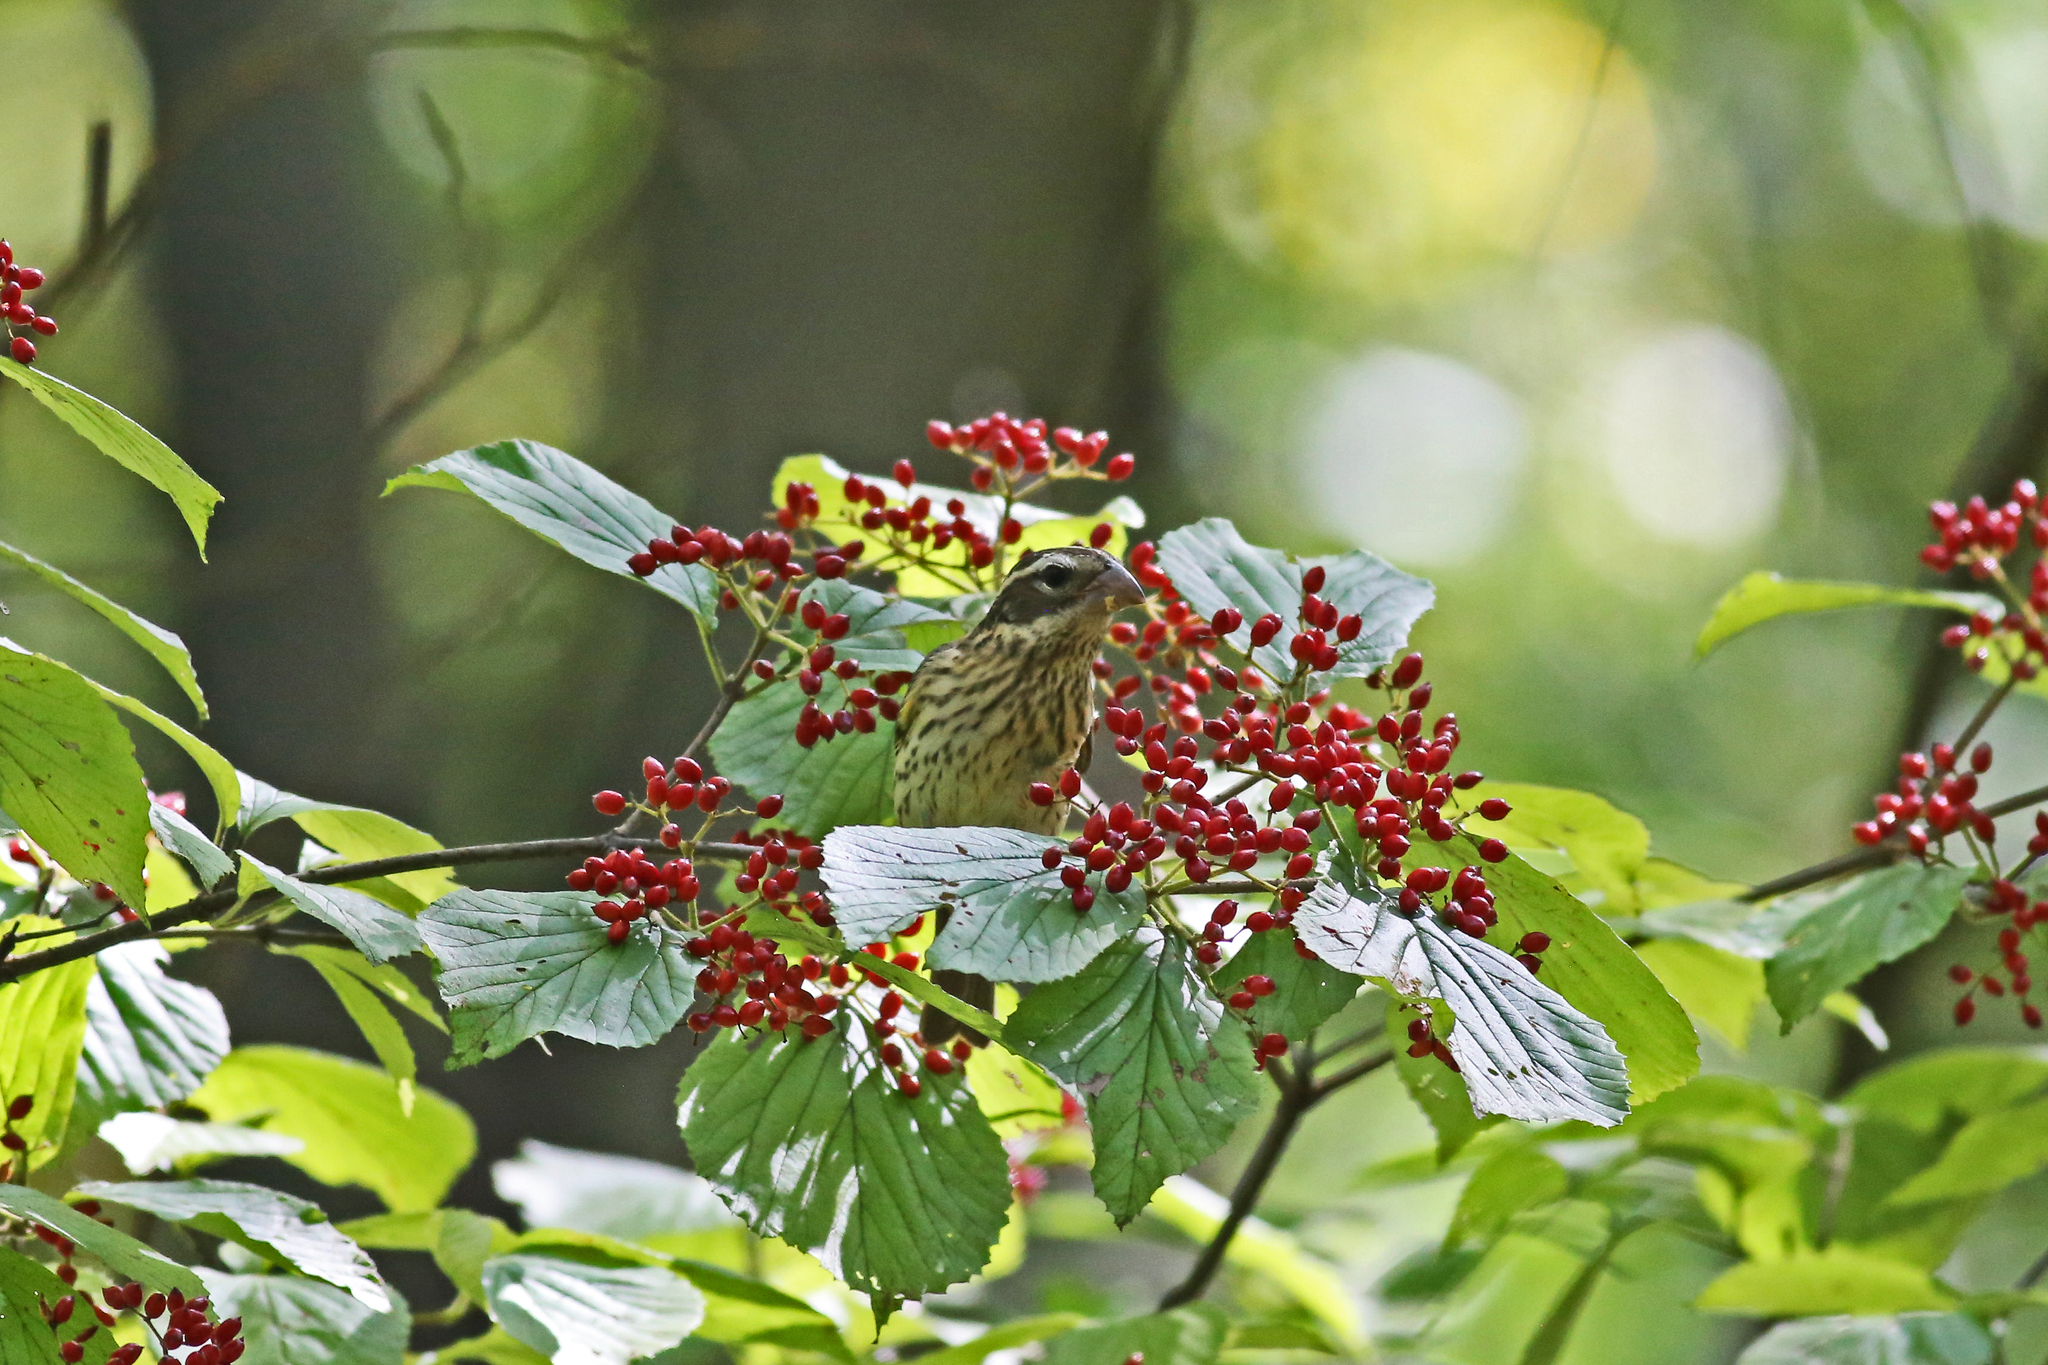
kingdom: Animalia
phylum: Chordata
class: Aves
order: Passeriformes
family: Cardinalidae
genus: Pheucticus
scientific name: Pheucticus ludovicianus
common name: Rose-breasted grosbeak
